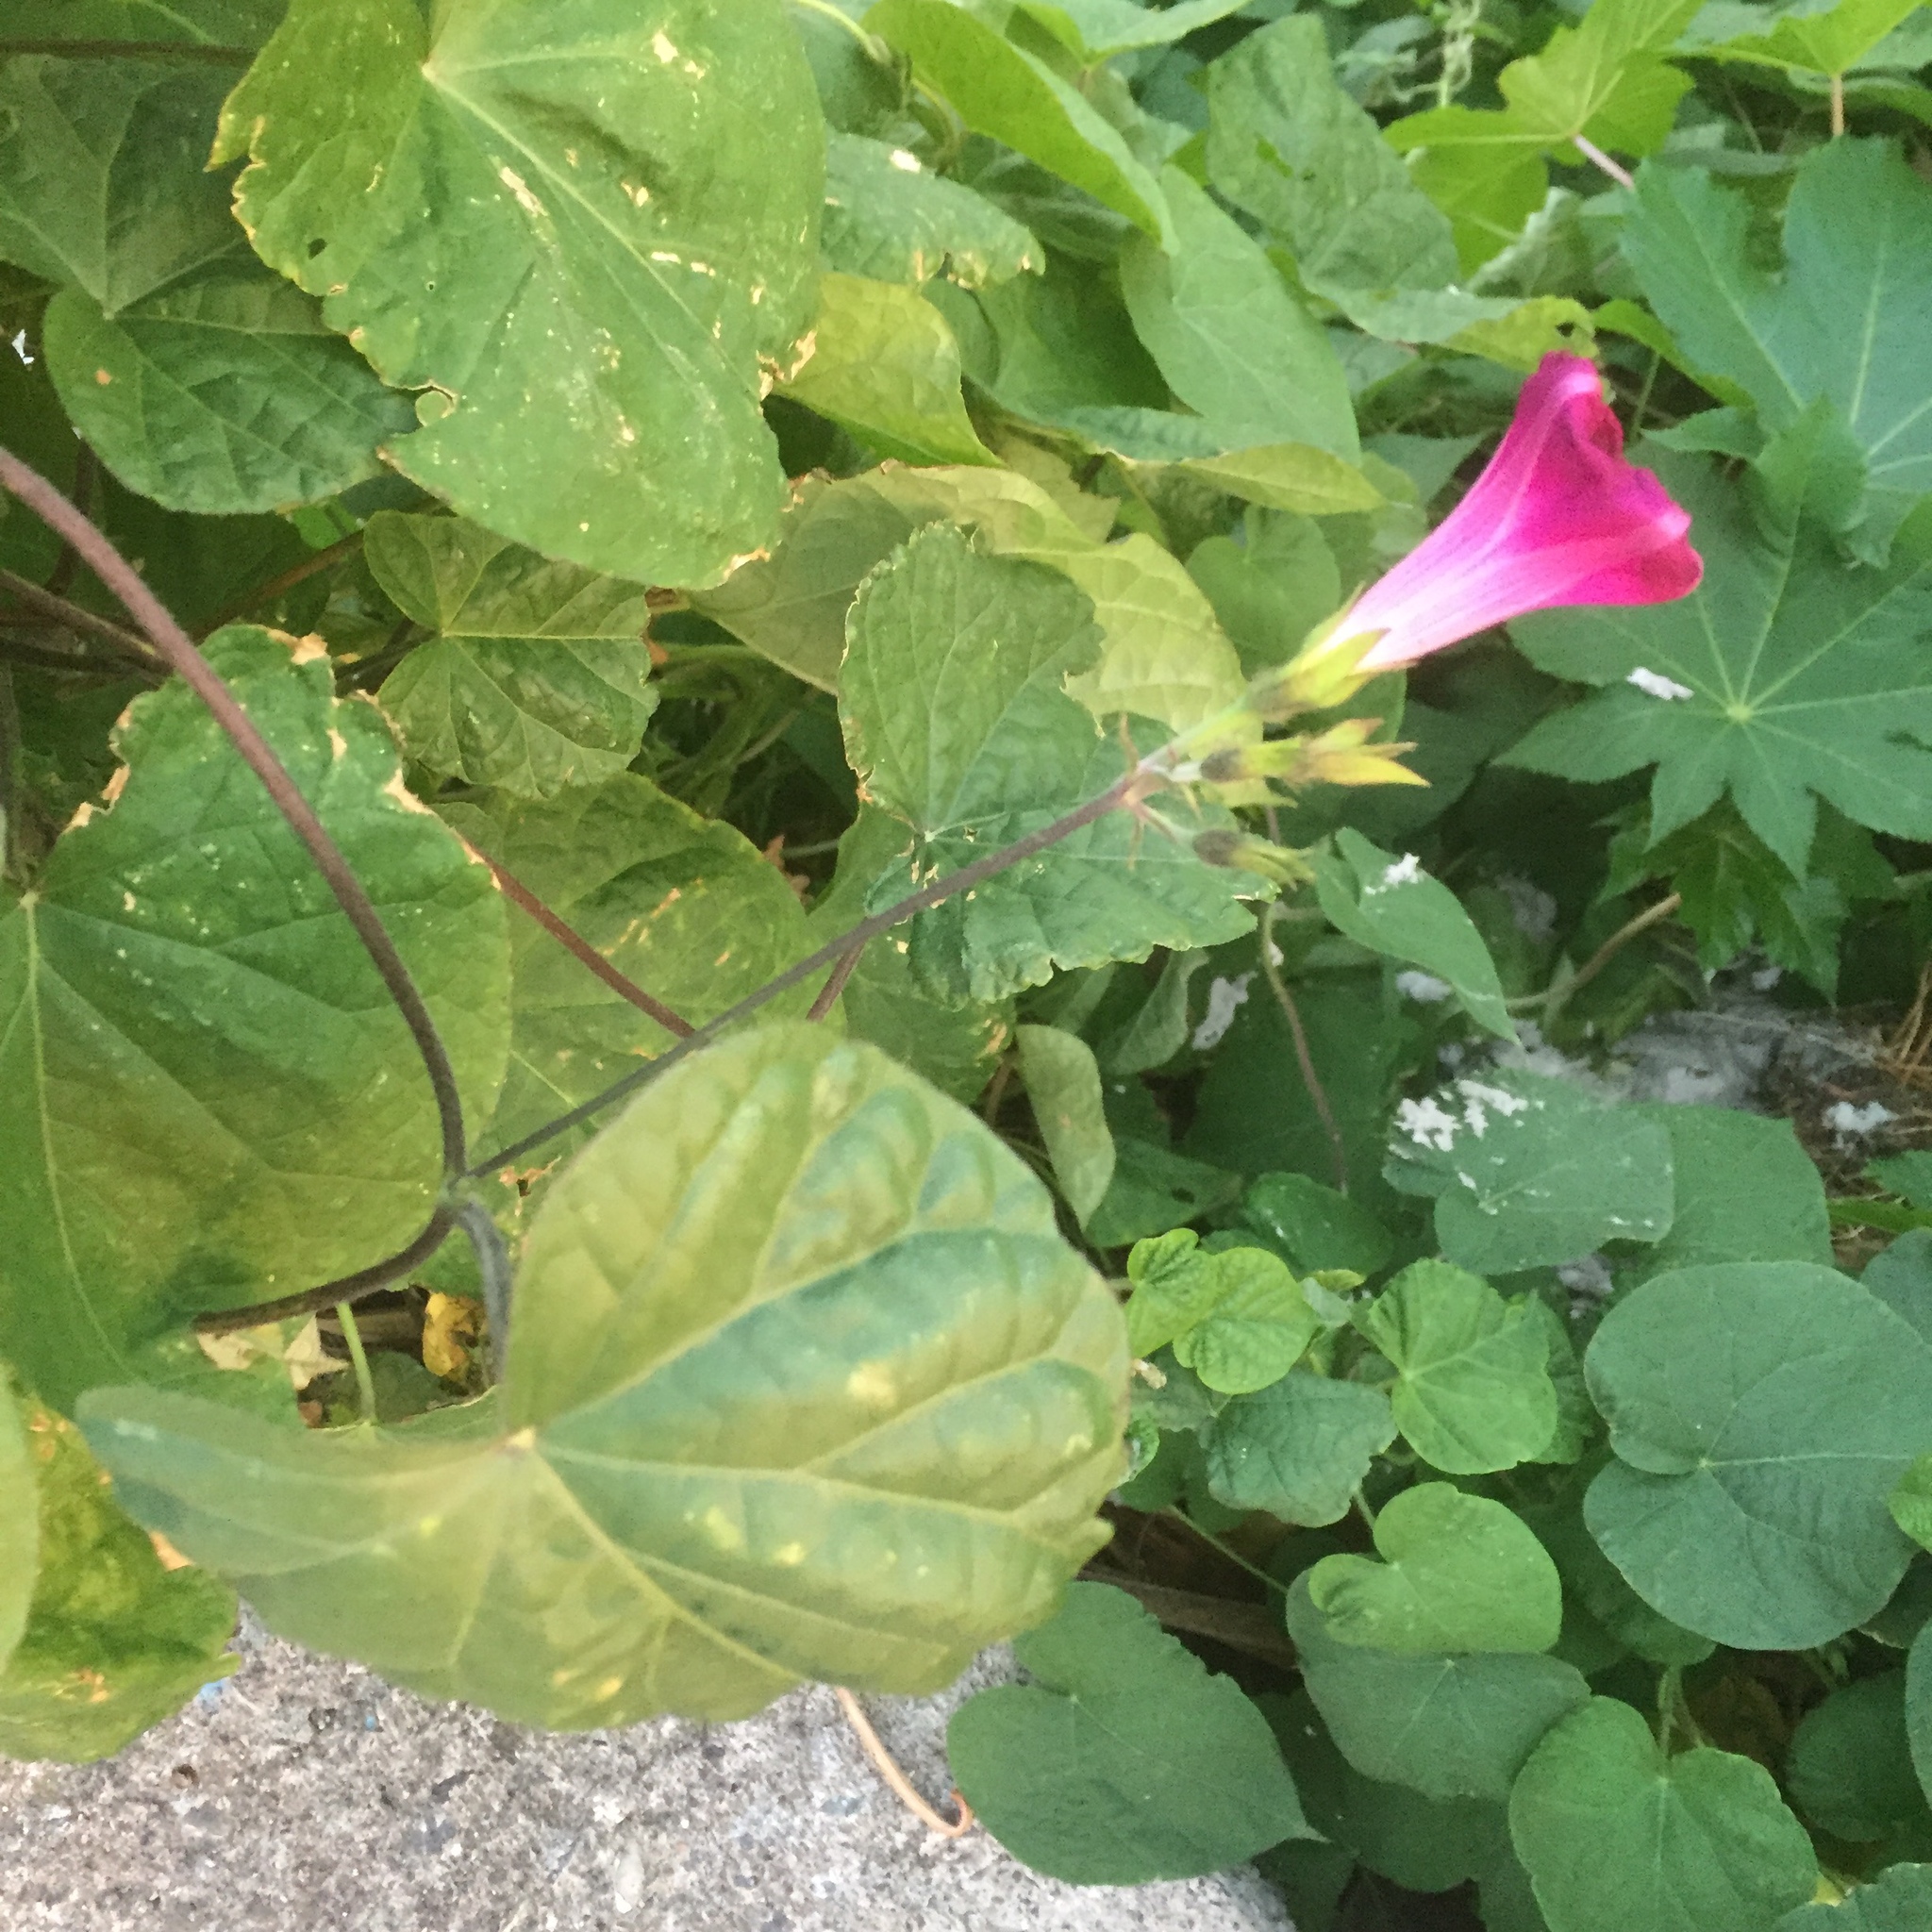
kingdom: Plantae
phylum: Tracheophyta
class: Magnoliopsida
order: Solanales
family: Convolvulaceae
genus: Ipomoea
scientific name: Ipomoea purpurea
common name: Common morning-glory
